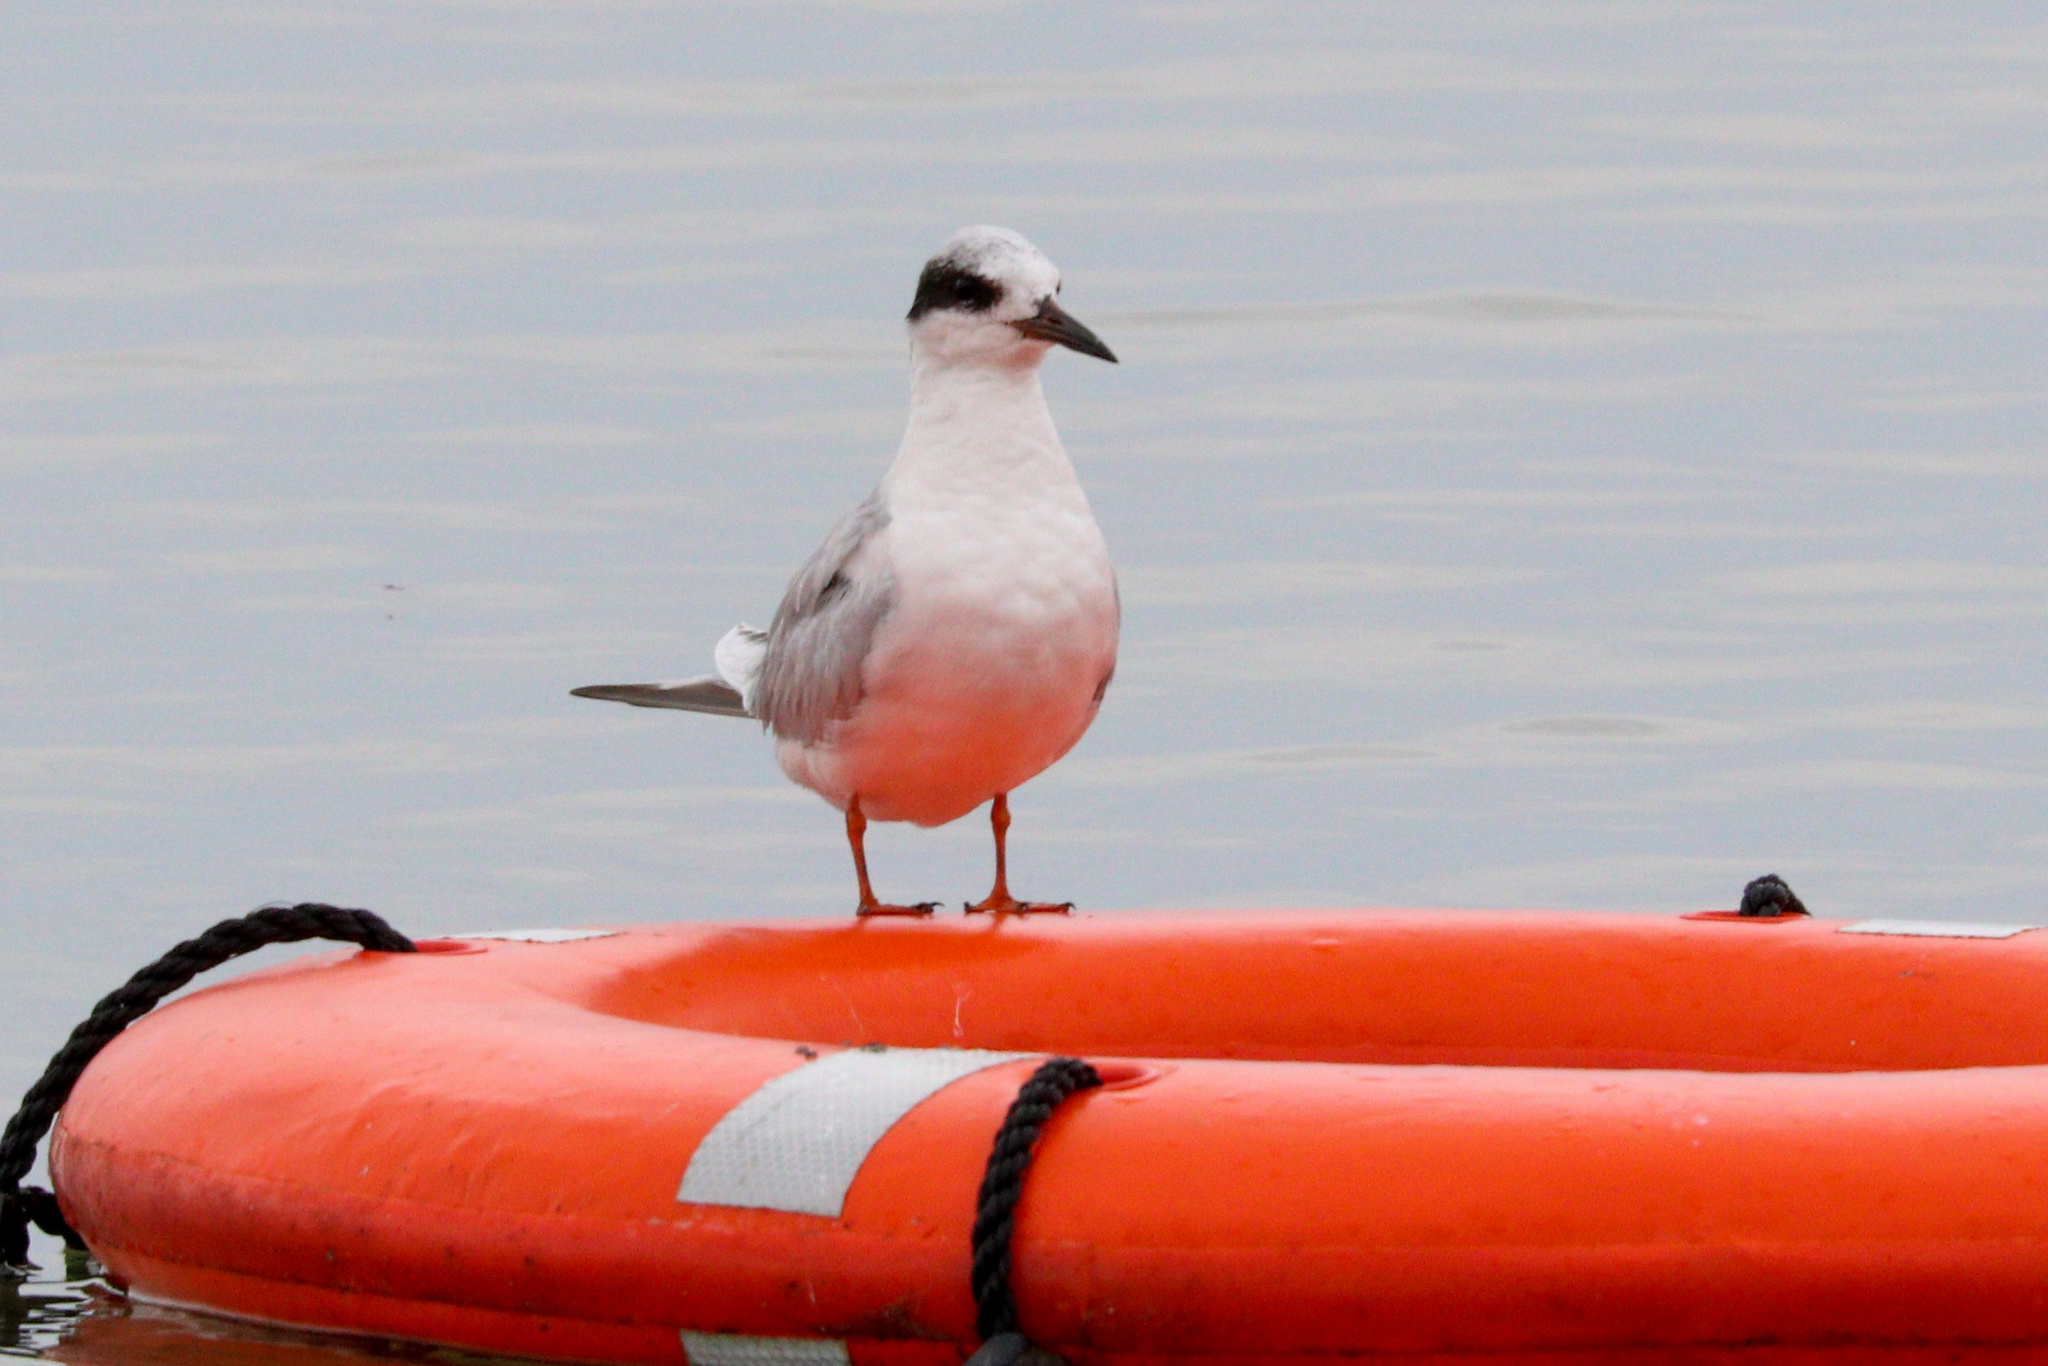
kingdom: Animalia
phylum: Chordata
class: Aves
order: Charadriiformes
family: Laridae
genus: Sterna
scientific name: Sterna forsteri
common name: Forster's tern
